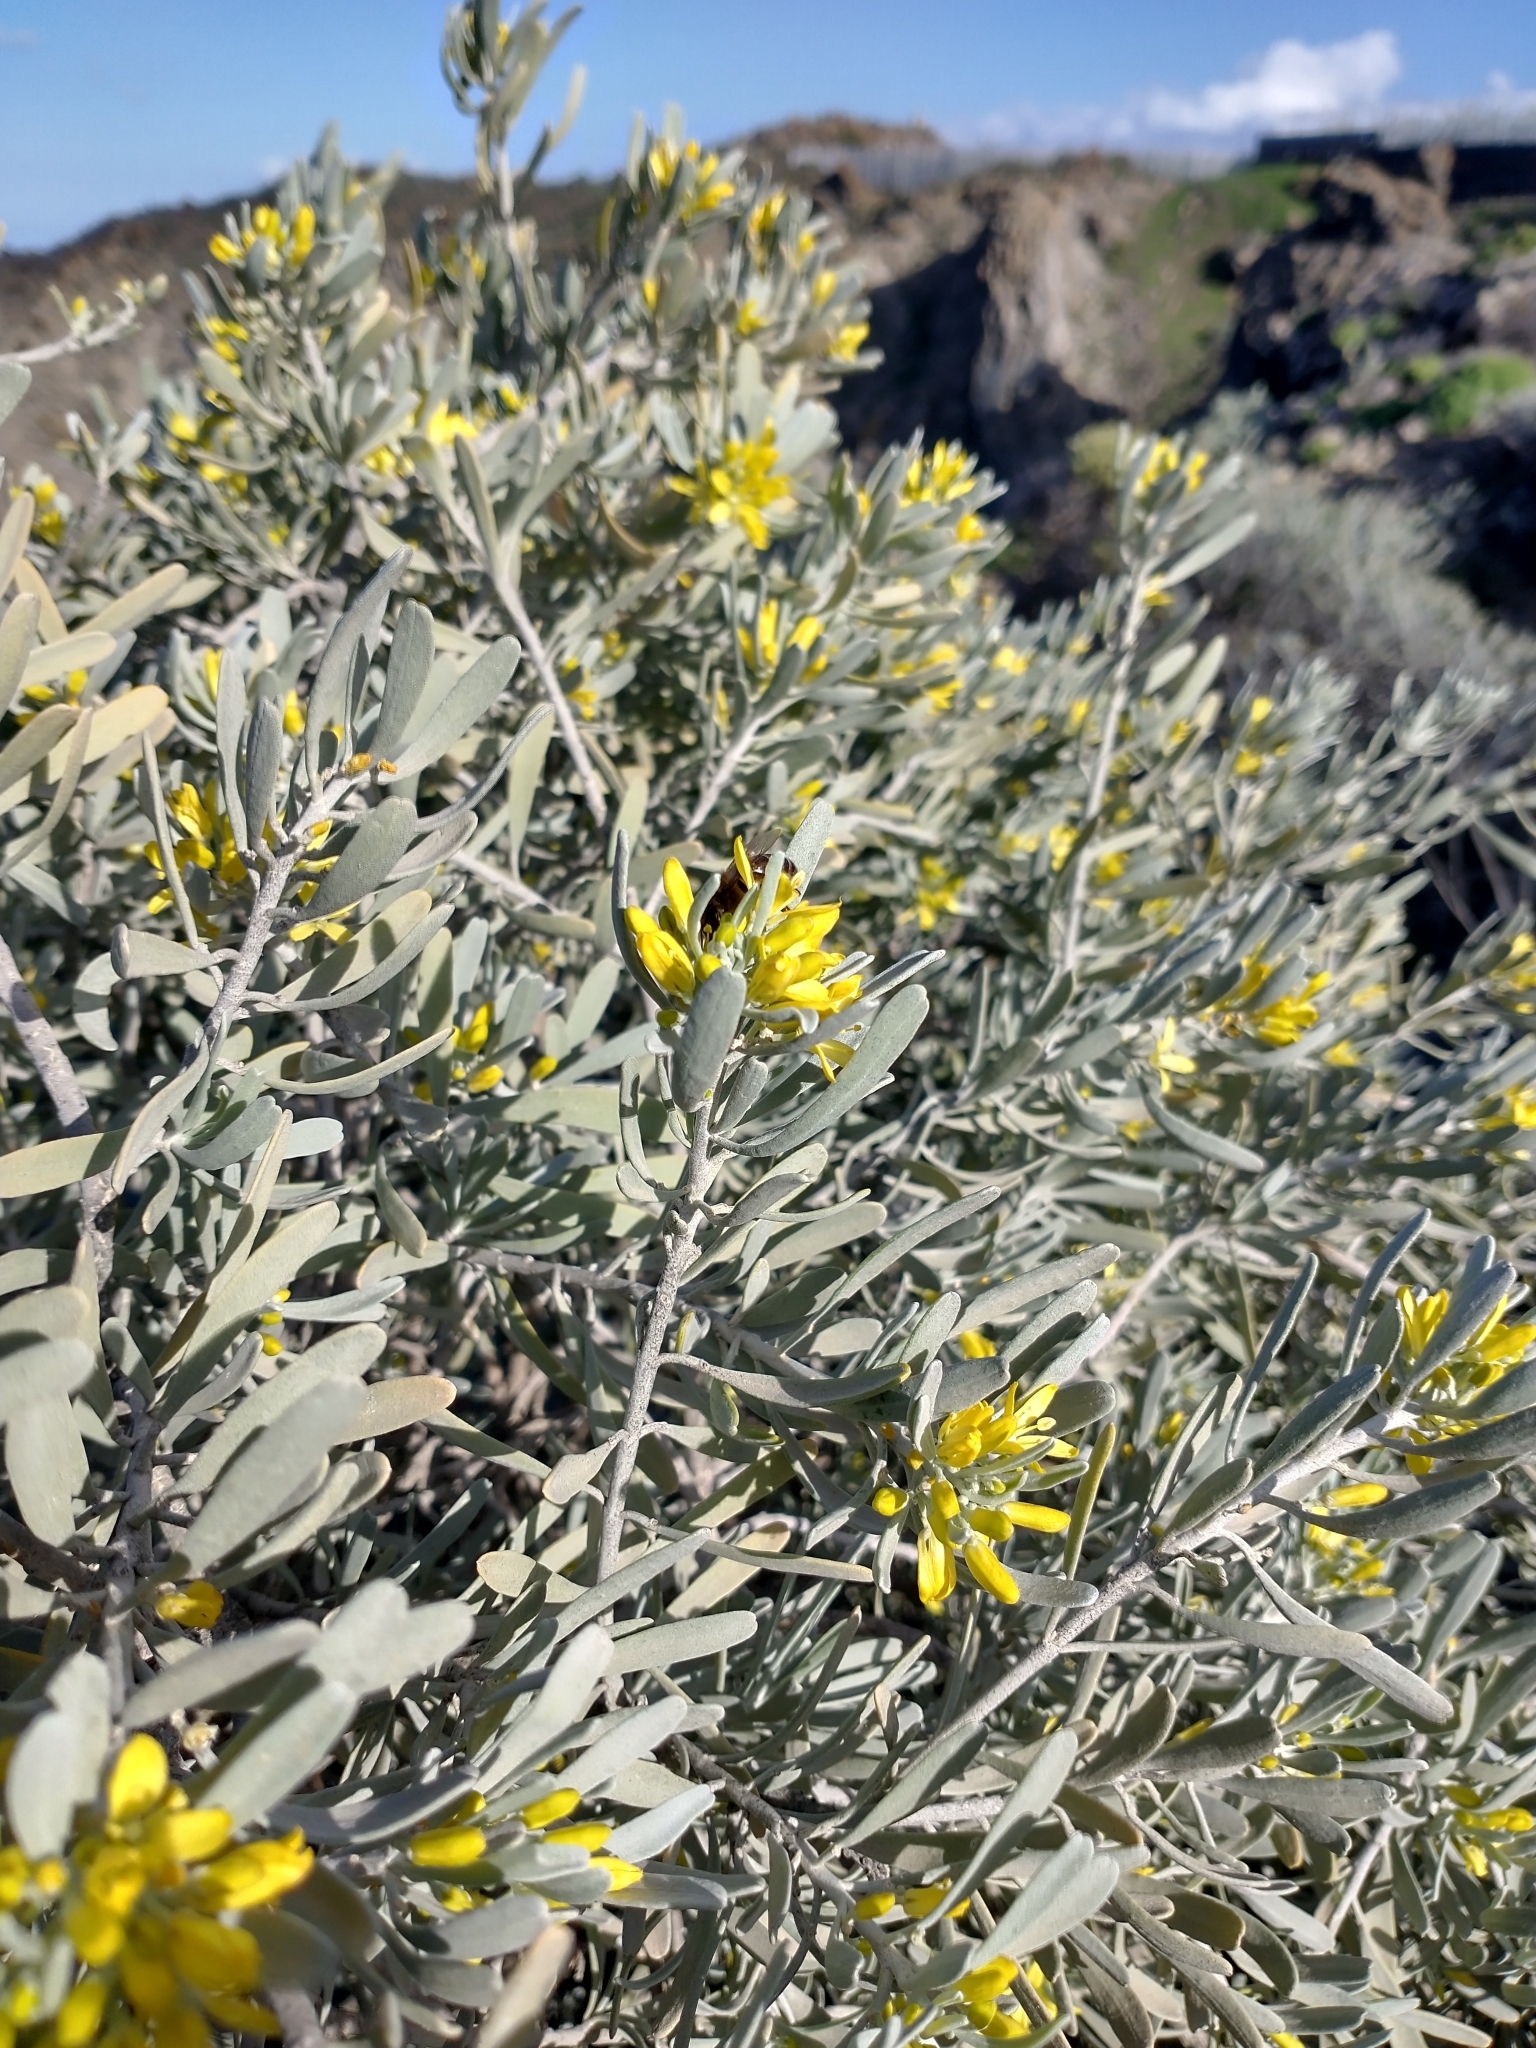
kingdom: Plantae
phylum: Tracheophyta
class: Magnoliopsida
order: Sapindales
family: Rutaceae
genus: Cneorum
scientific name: Cneorum pulverulentum
